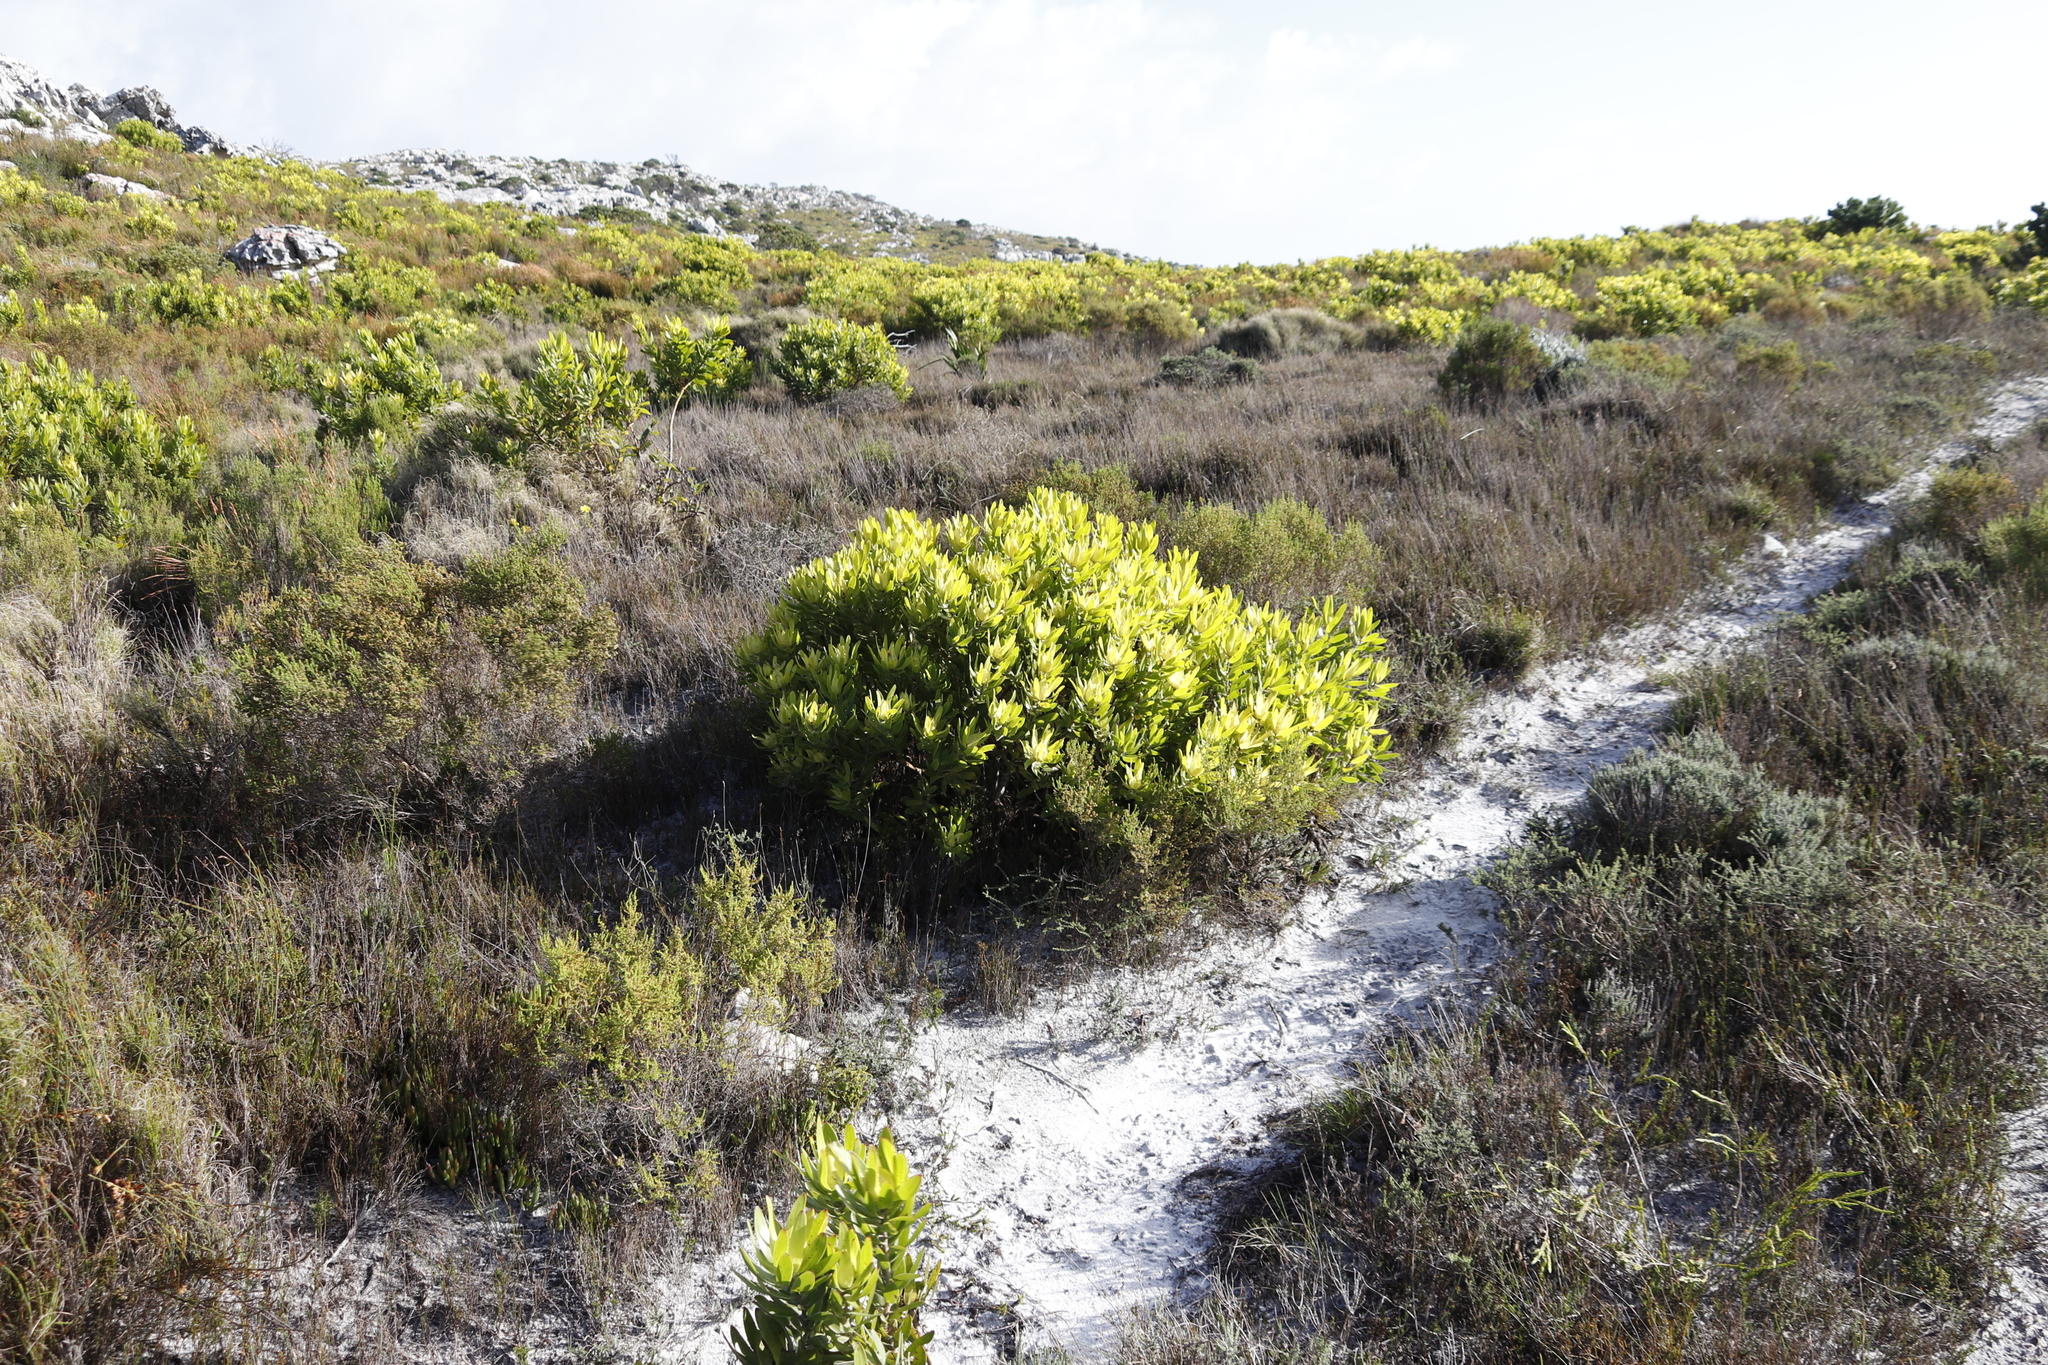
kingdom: Plantae
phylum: Tracheophyta
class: Magnoliopsida
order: Proteales
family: Proteaceae
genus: Leucadendron
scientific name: Leucadendron laureolum
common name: Golden sunshinebush
